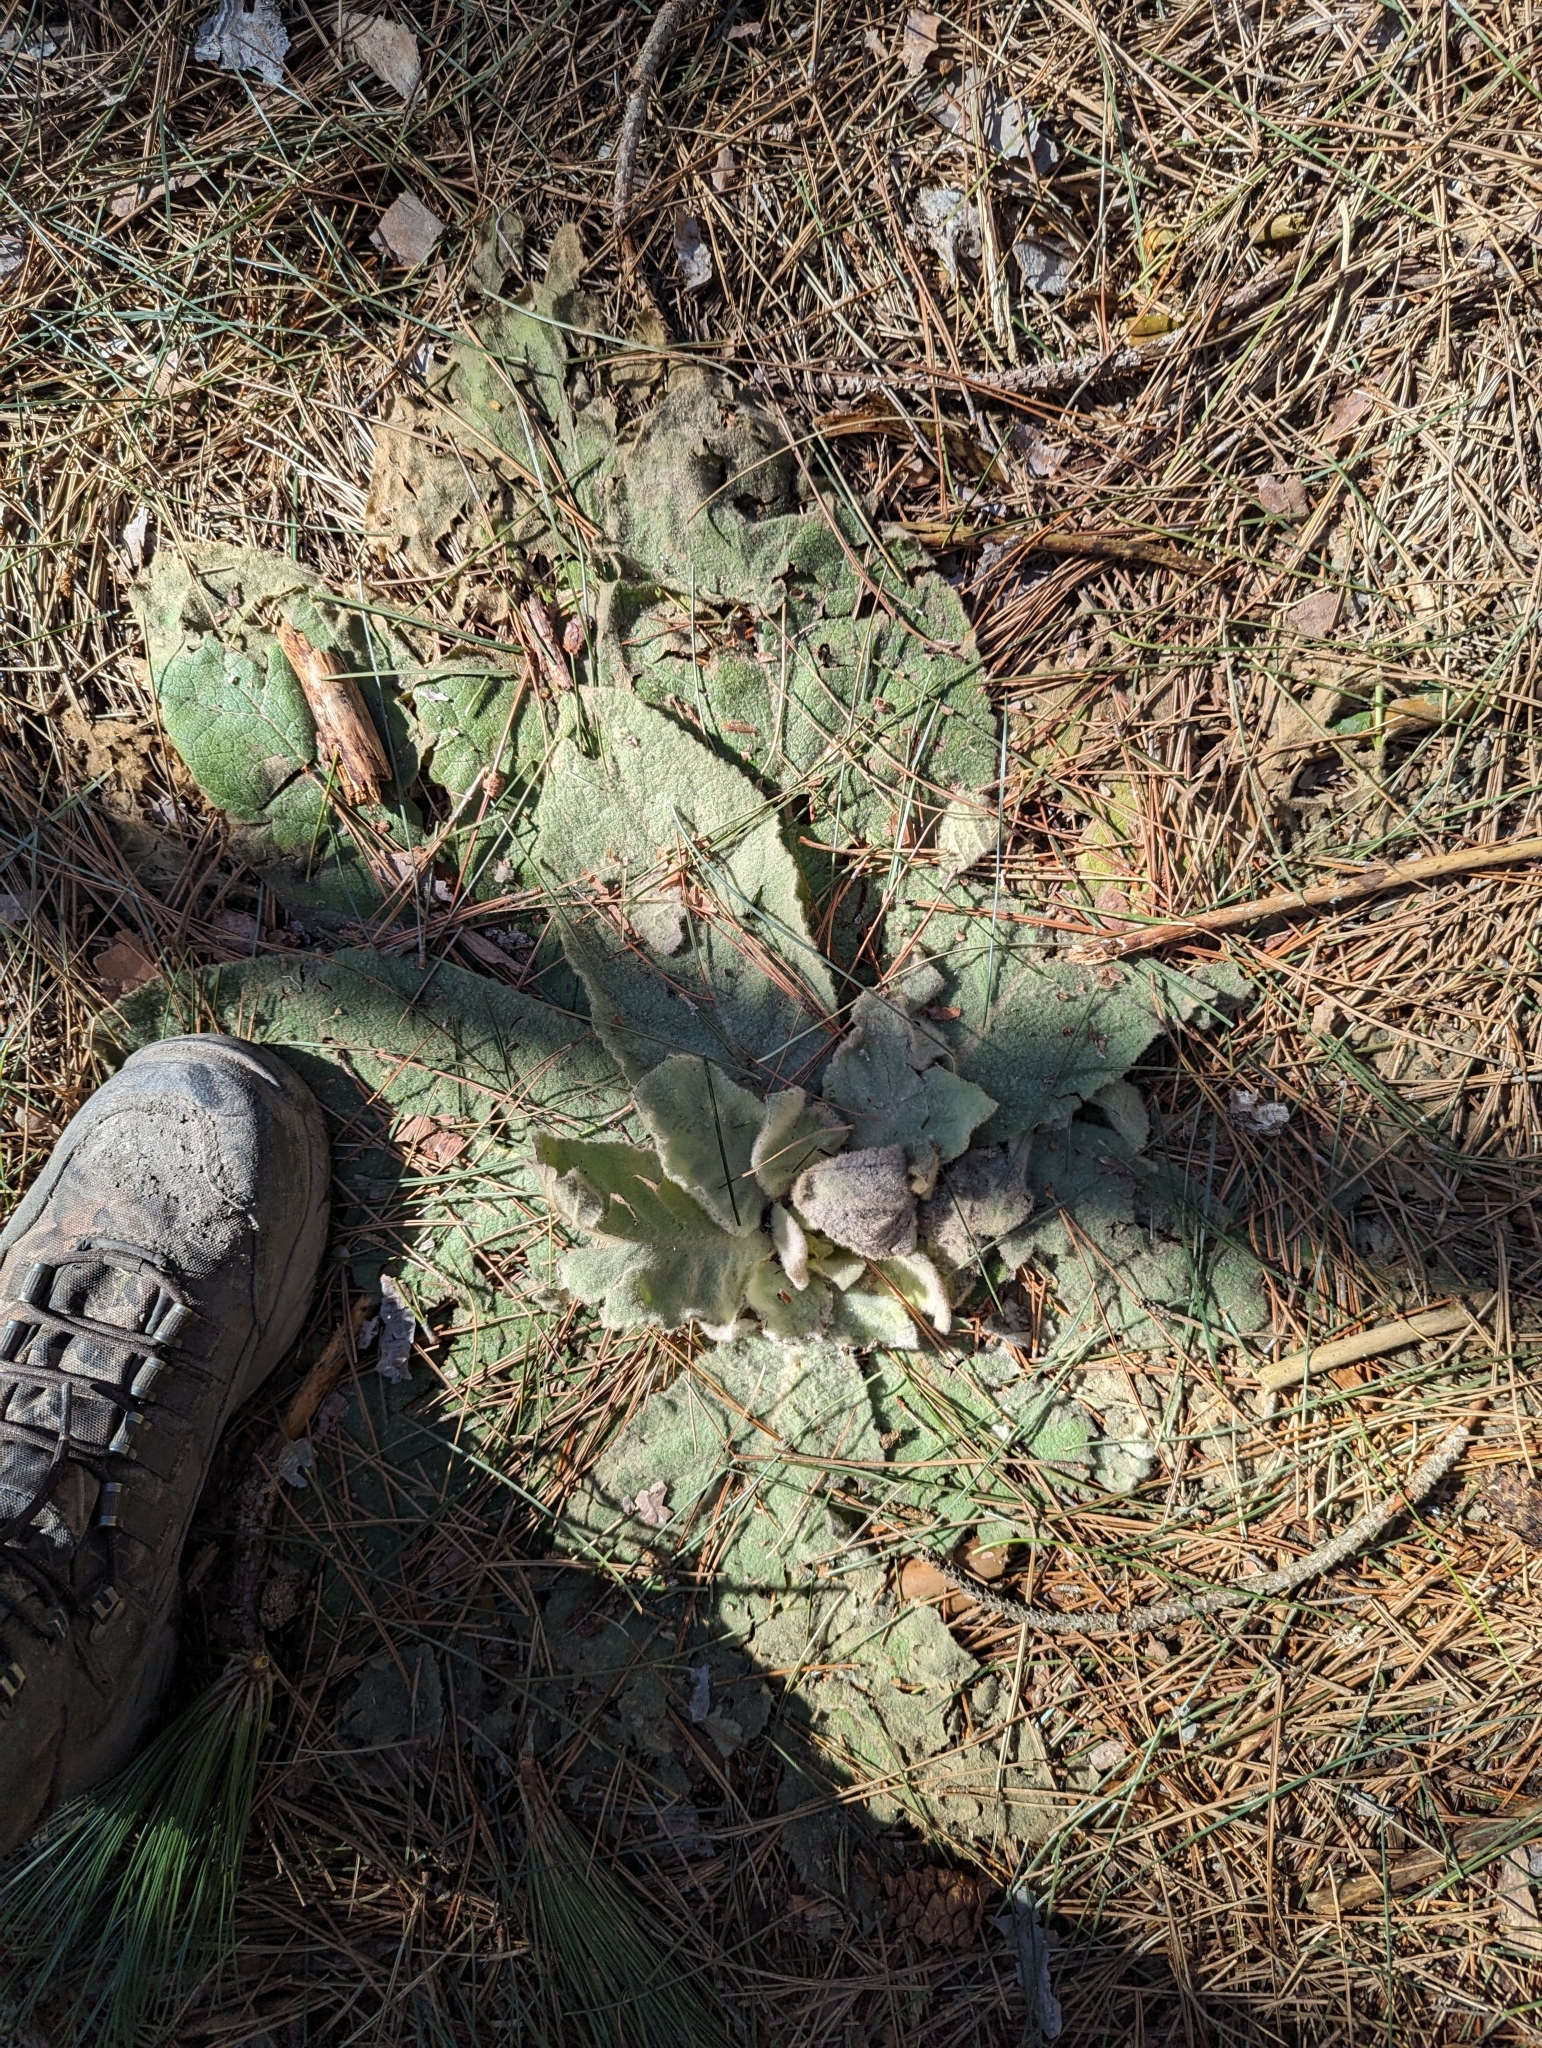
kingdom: Plantae
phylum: Tracheophyta
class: Magnoliopsida
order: Lamiales
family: Scrophulariaceae
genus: Verbascum
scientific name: Verbascum thapsus
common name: Common mullein
